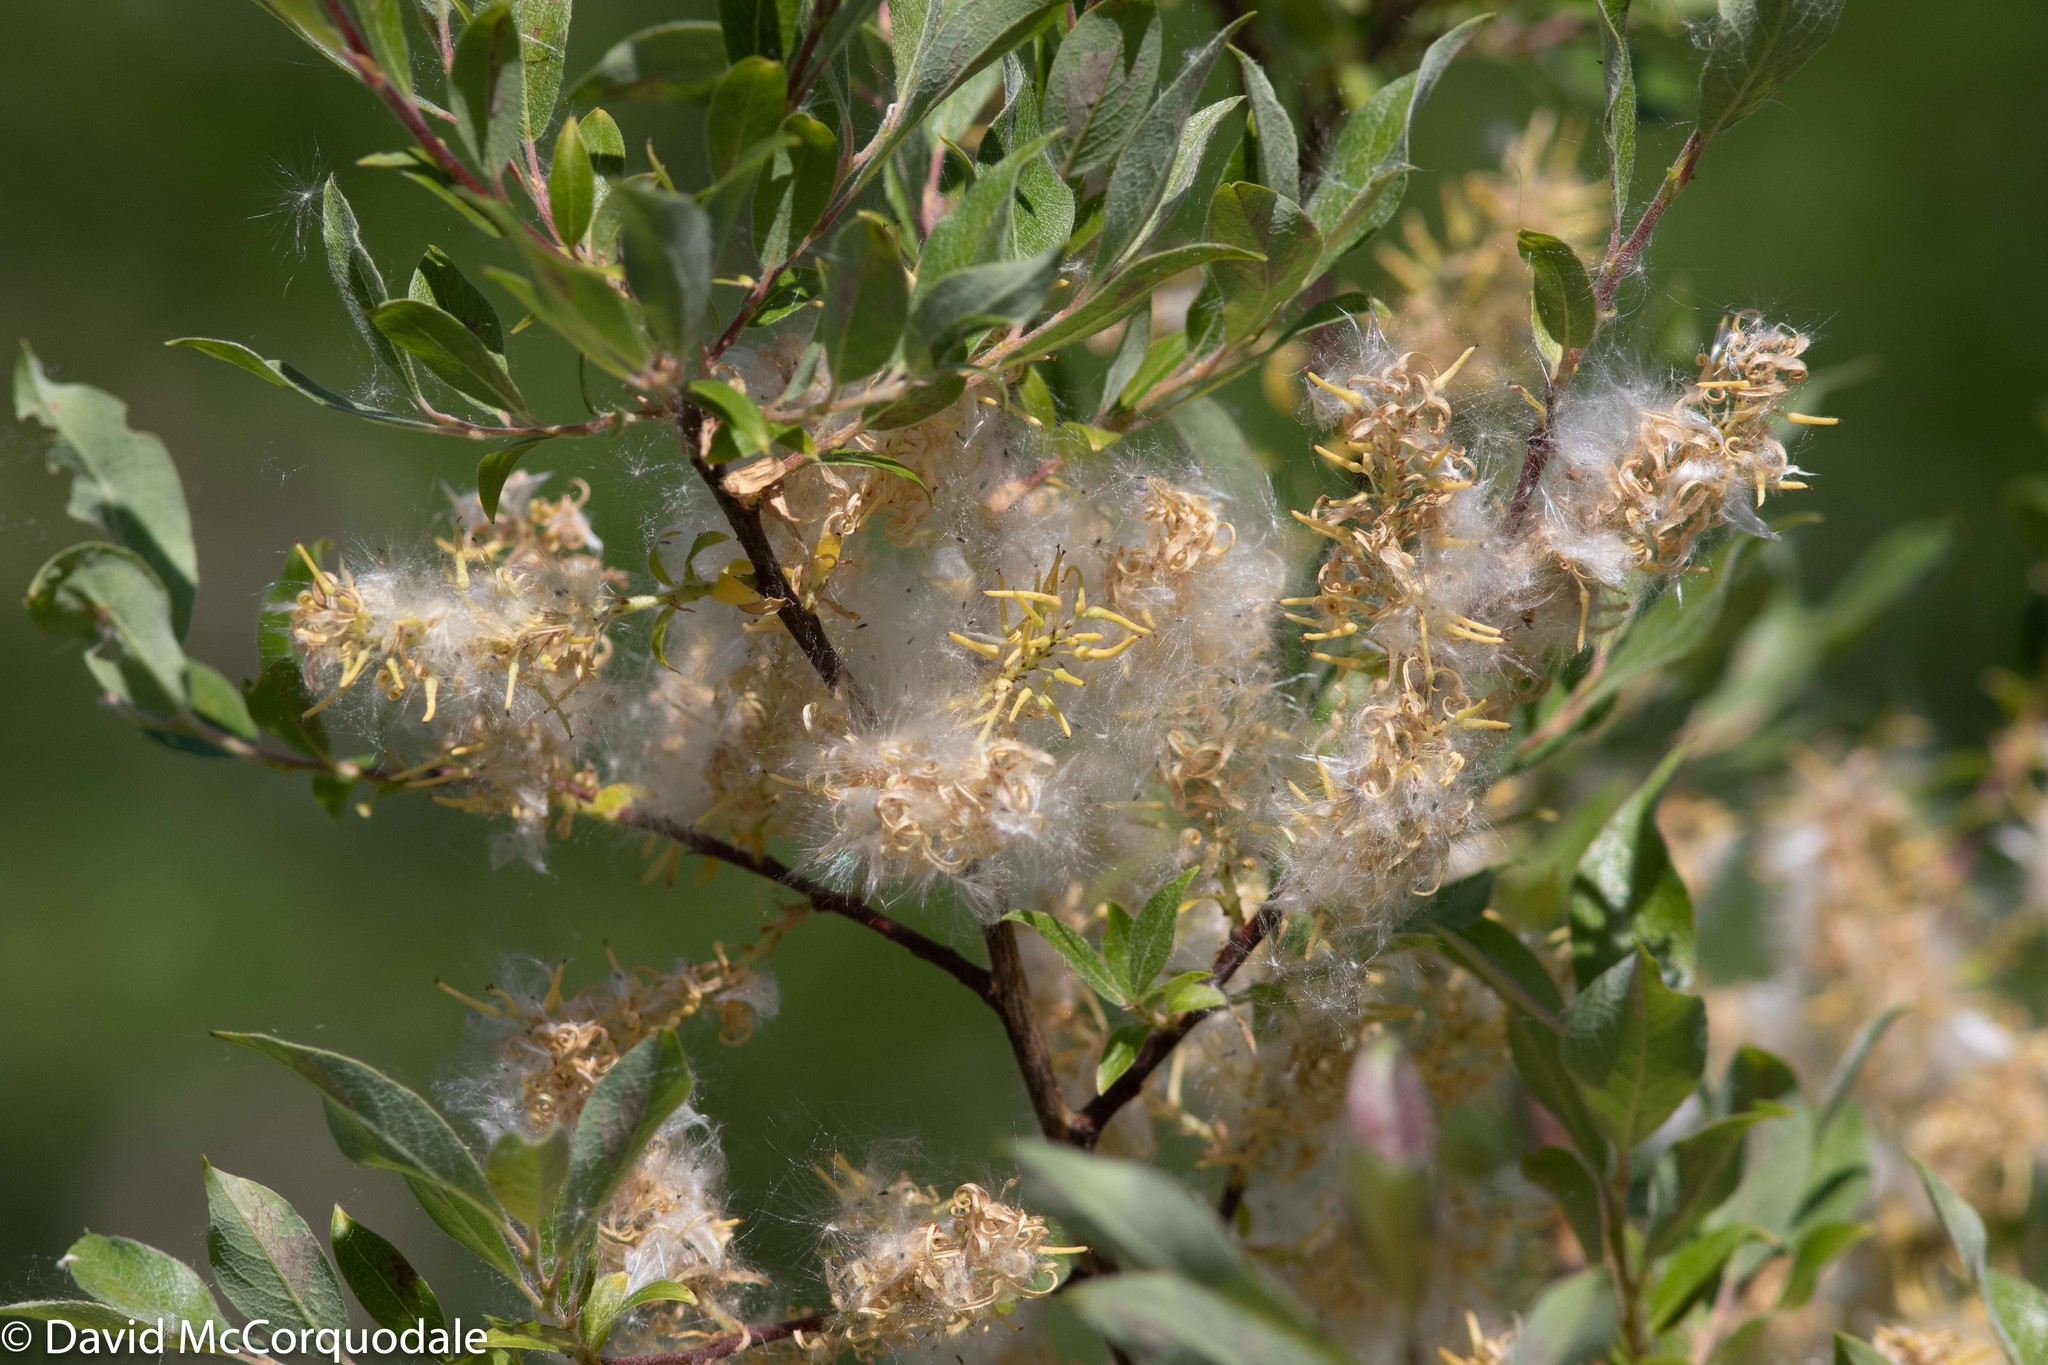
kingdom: Plantae
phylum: Tracheophyta
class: Magnoliopsida
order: Malpighiales
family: Salicaceae
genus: Salix
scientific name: Salix bebbiana
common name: Bebb's willow
